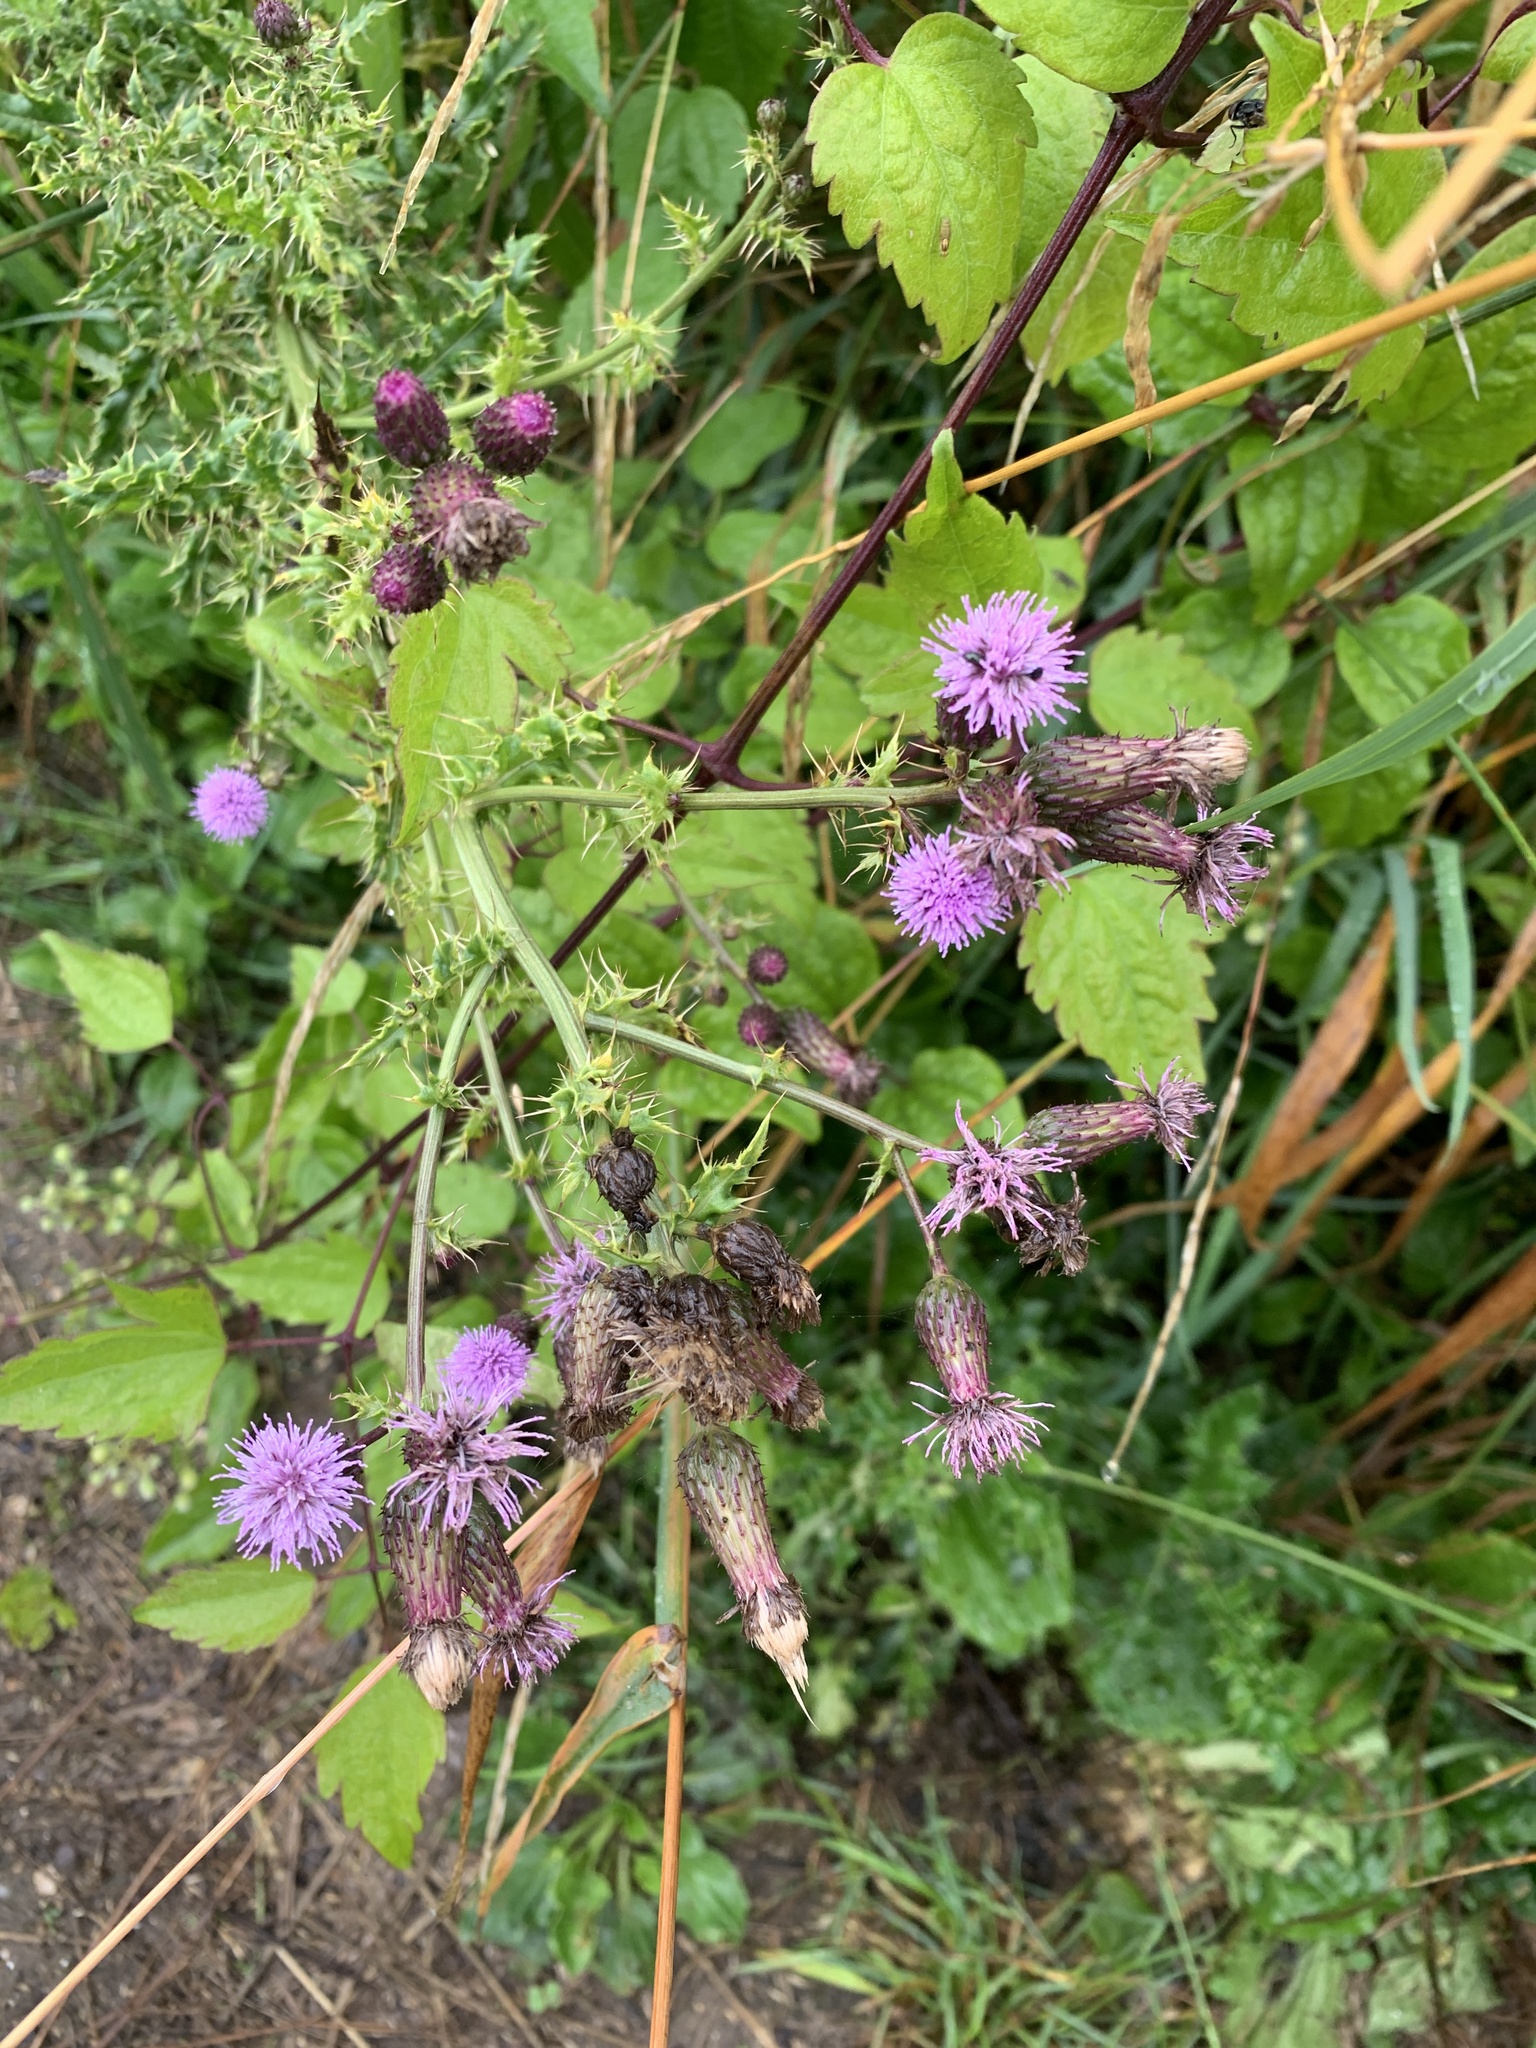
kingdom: Plantae
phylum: Tracheophyta
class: Magnoliopsida
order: Asterales
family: Asteraceae
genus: Cirsium
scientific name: Cirsium arvense
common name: Creeping thistle
